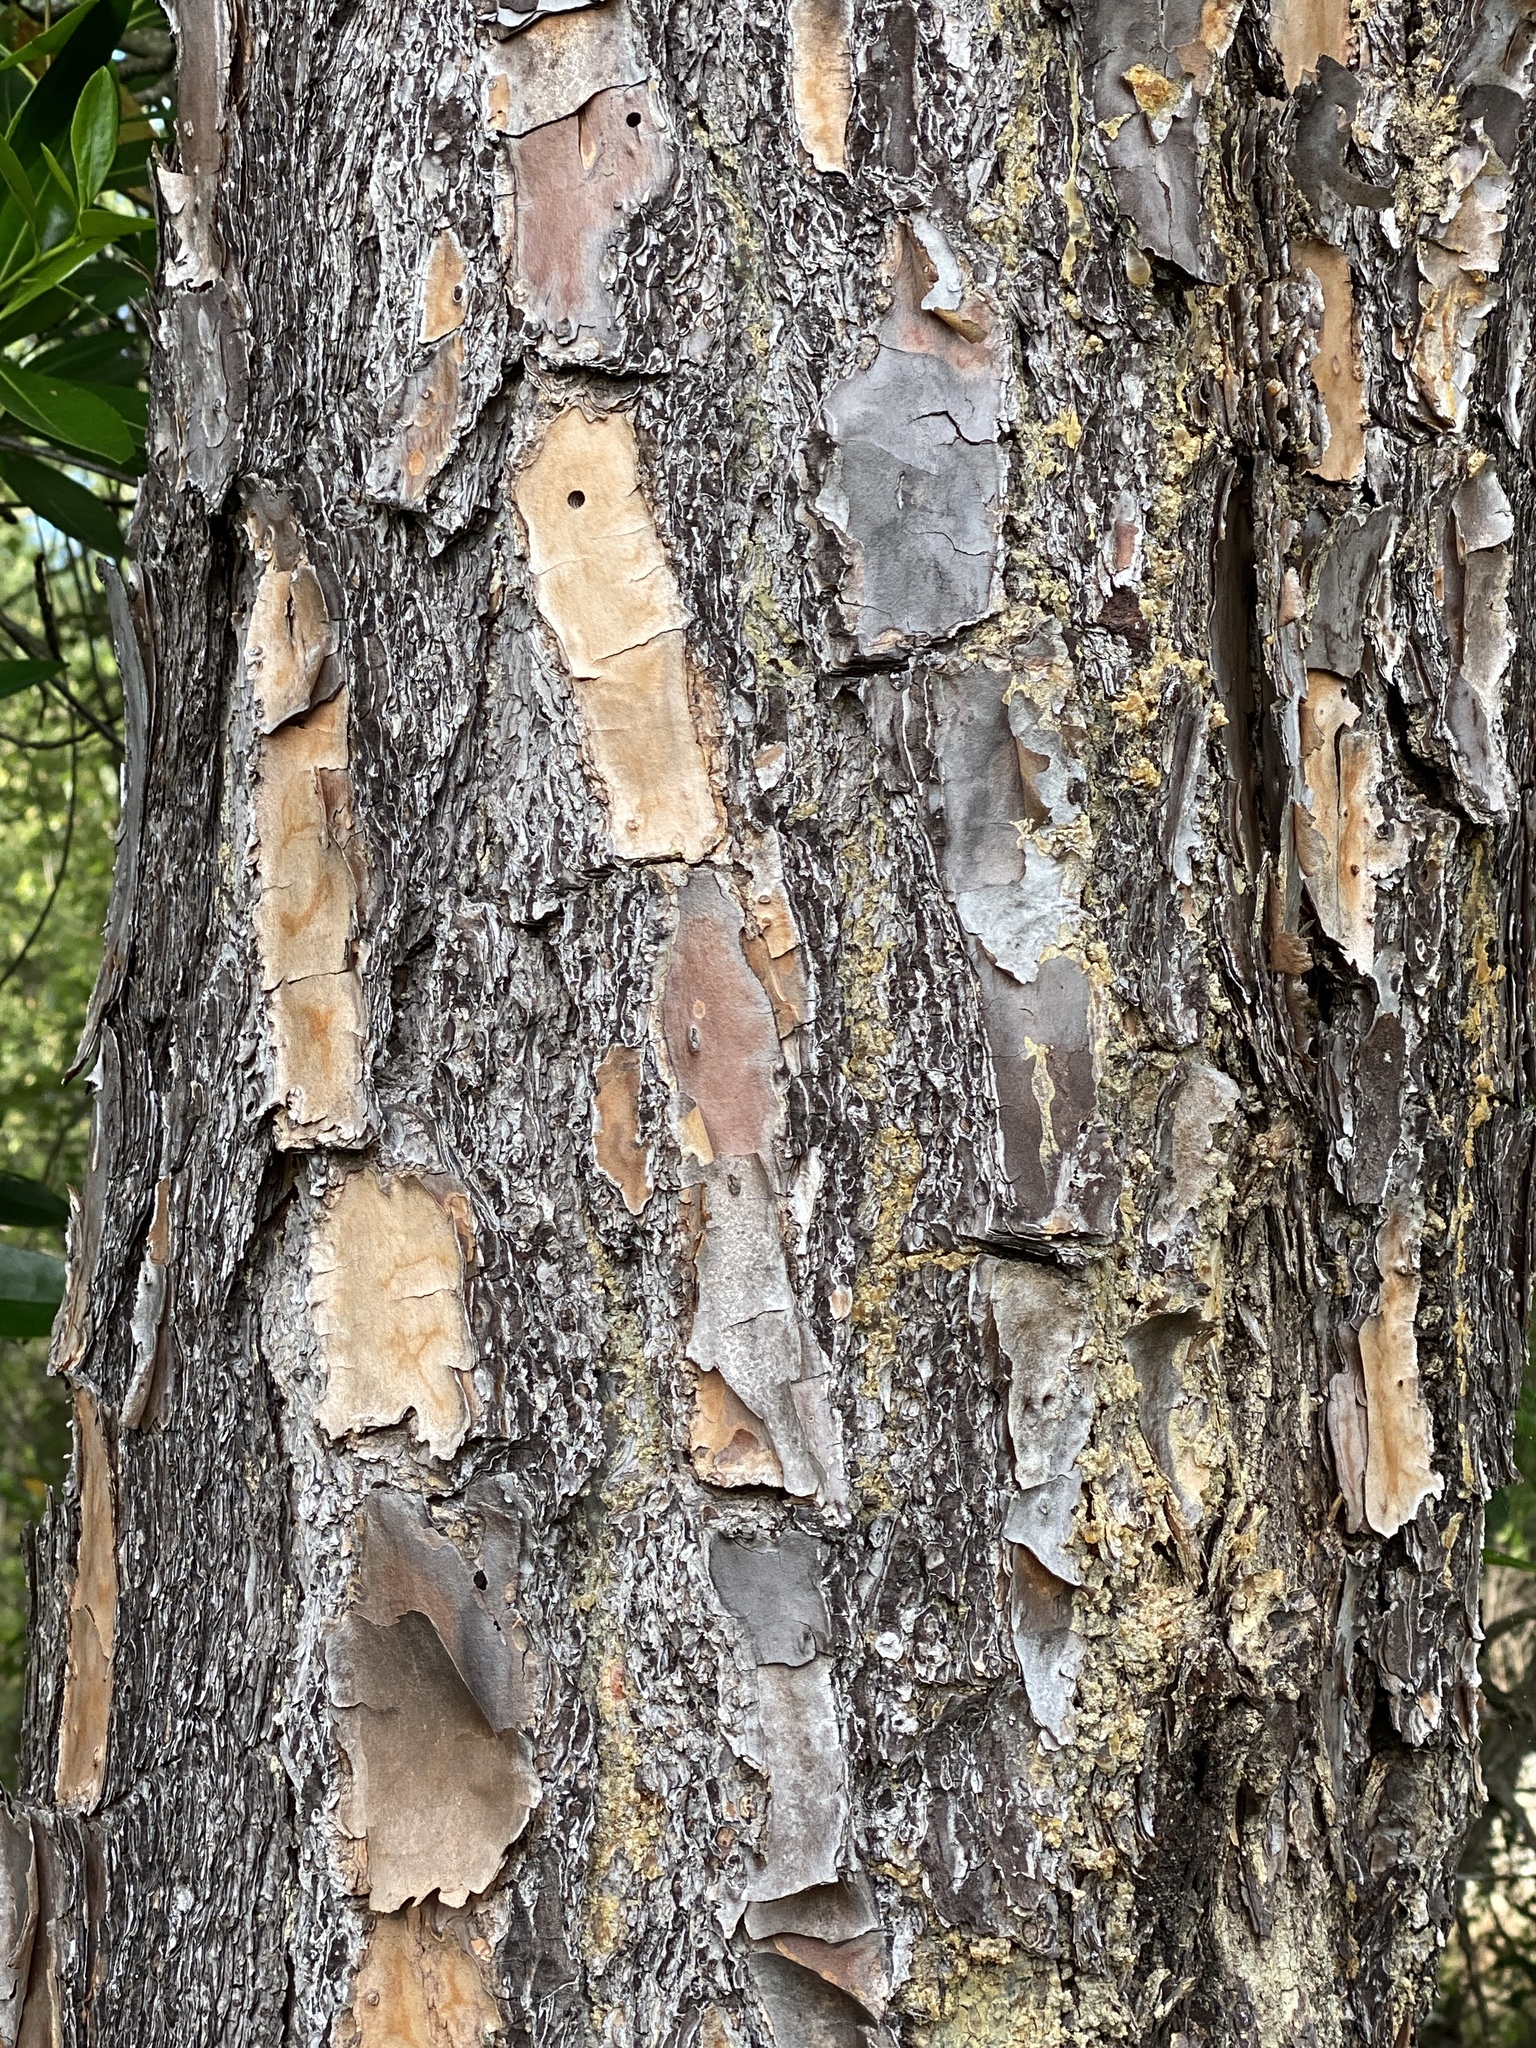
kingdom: Plantae
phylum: Tracheophyta
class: Pinopsida
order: Pinales
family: Pinaceae
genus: Pinus
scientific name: Pinus elliottii
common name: Slash pine
